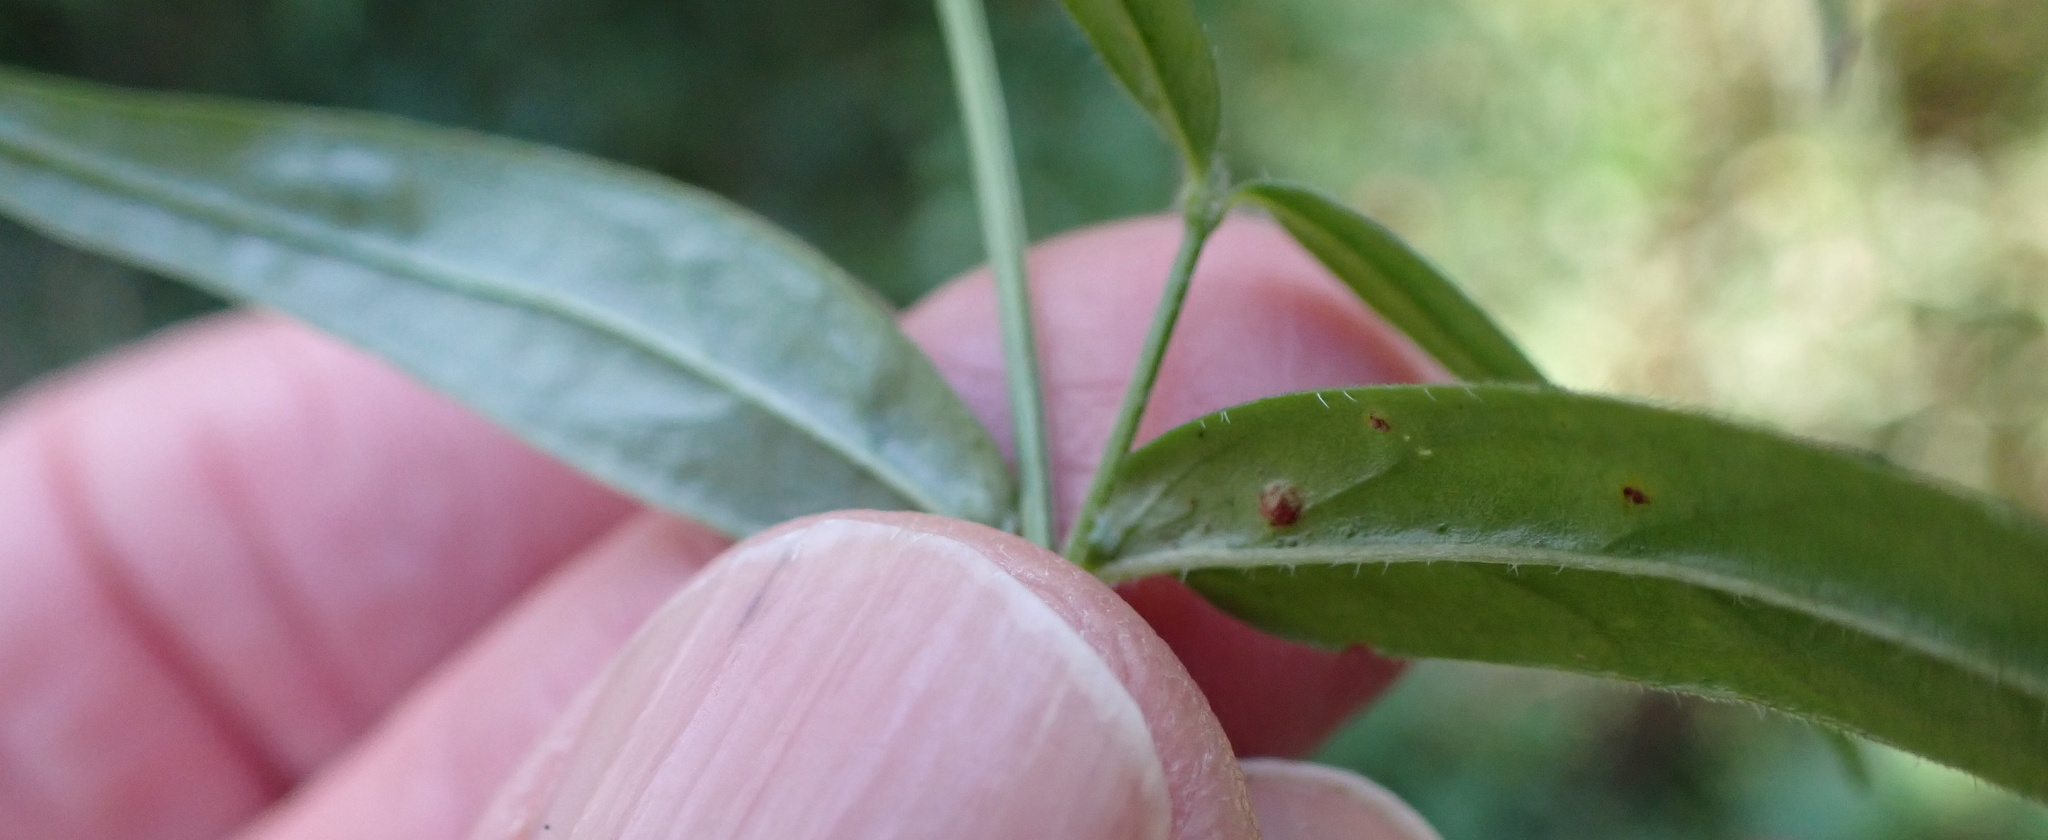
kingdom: Plantae
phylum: Tracheophyta
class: Magnoliopsida
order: Gentianales
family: Rubiaceae
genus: Conostomium
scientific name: Conostomium natalense
